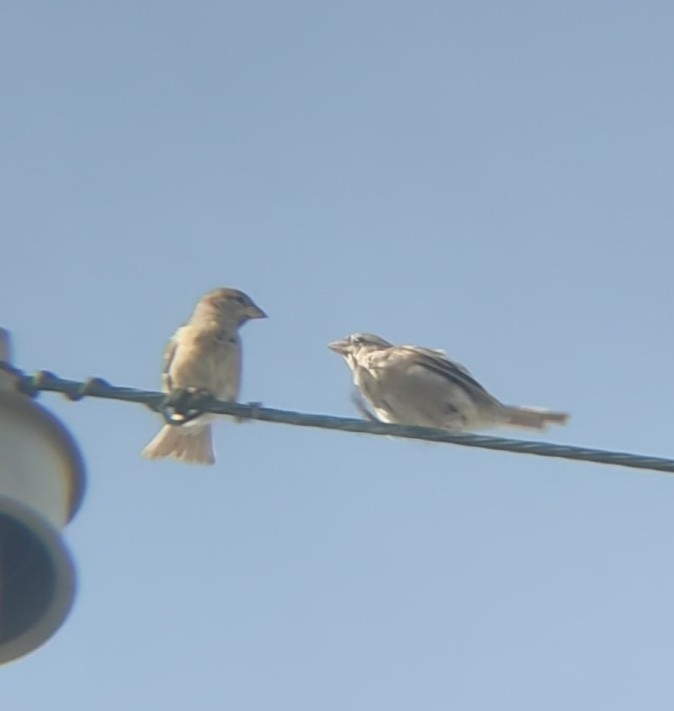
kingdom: Animalia
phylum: Chordata
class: Aves
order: Passeriformes
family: Passeridae
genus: Passer
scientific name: Passer domesticus
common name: House sparrow
